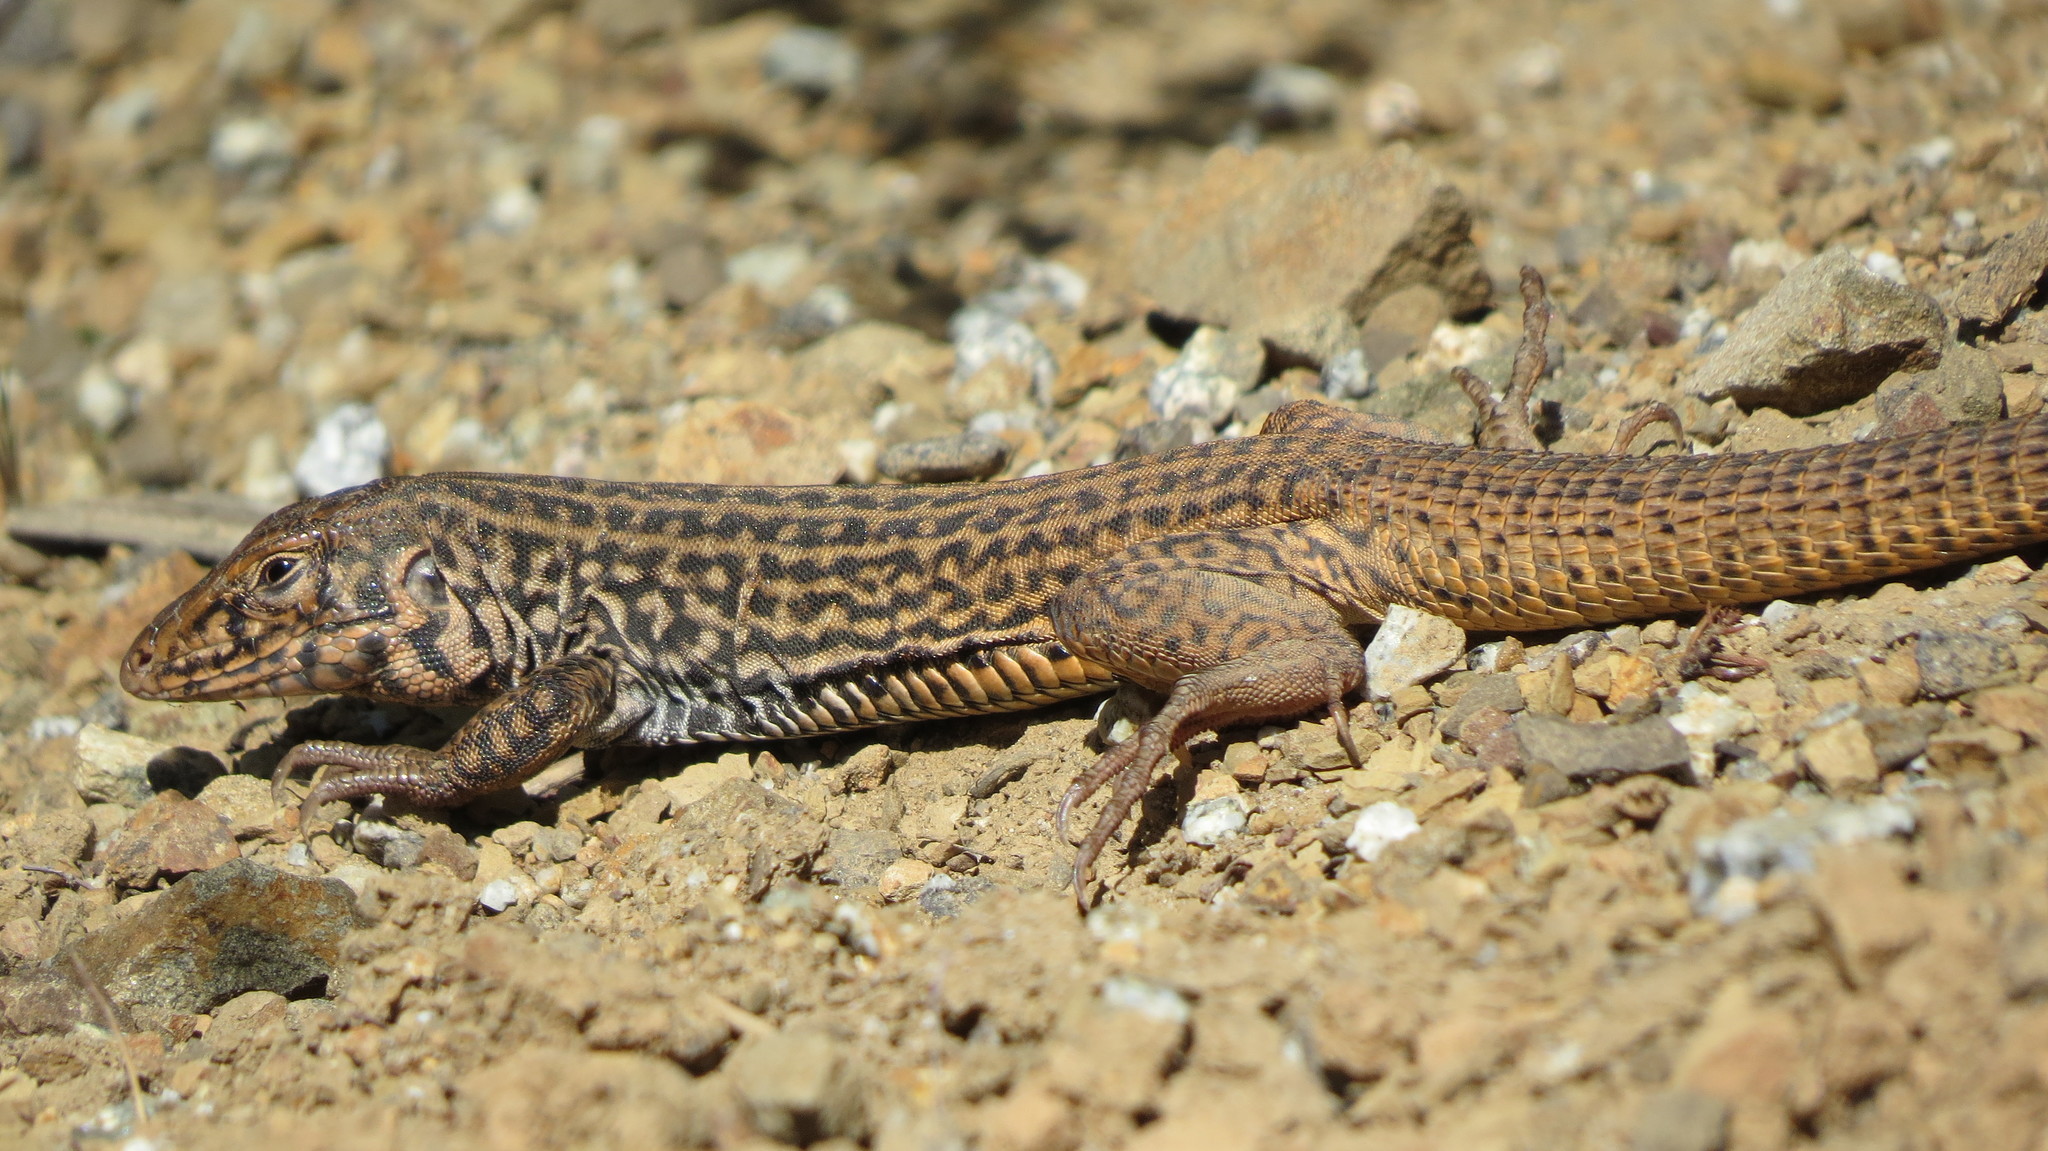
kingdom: Animalia
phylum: Chordata
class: Squamata
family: Teiidae
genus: Aspidoscelis
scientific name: Aspidoscelis tigris
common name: Tiger whiptail
